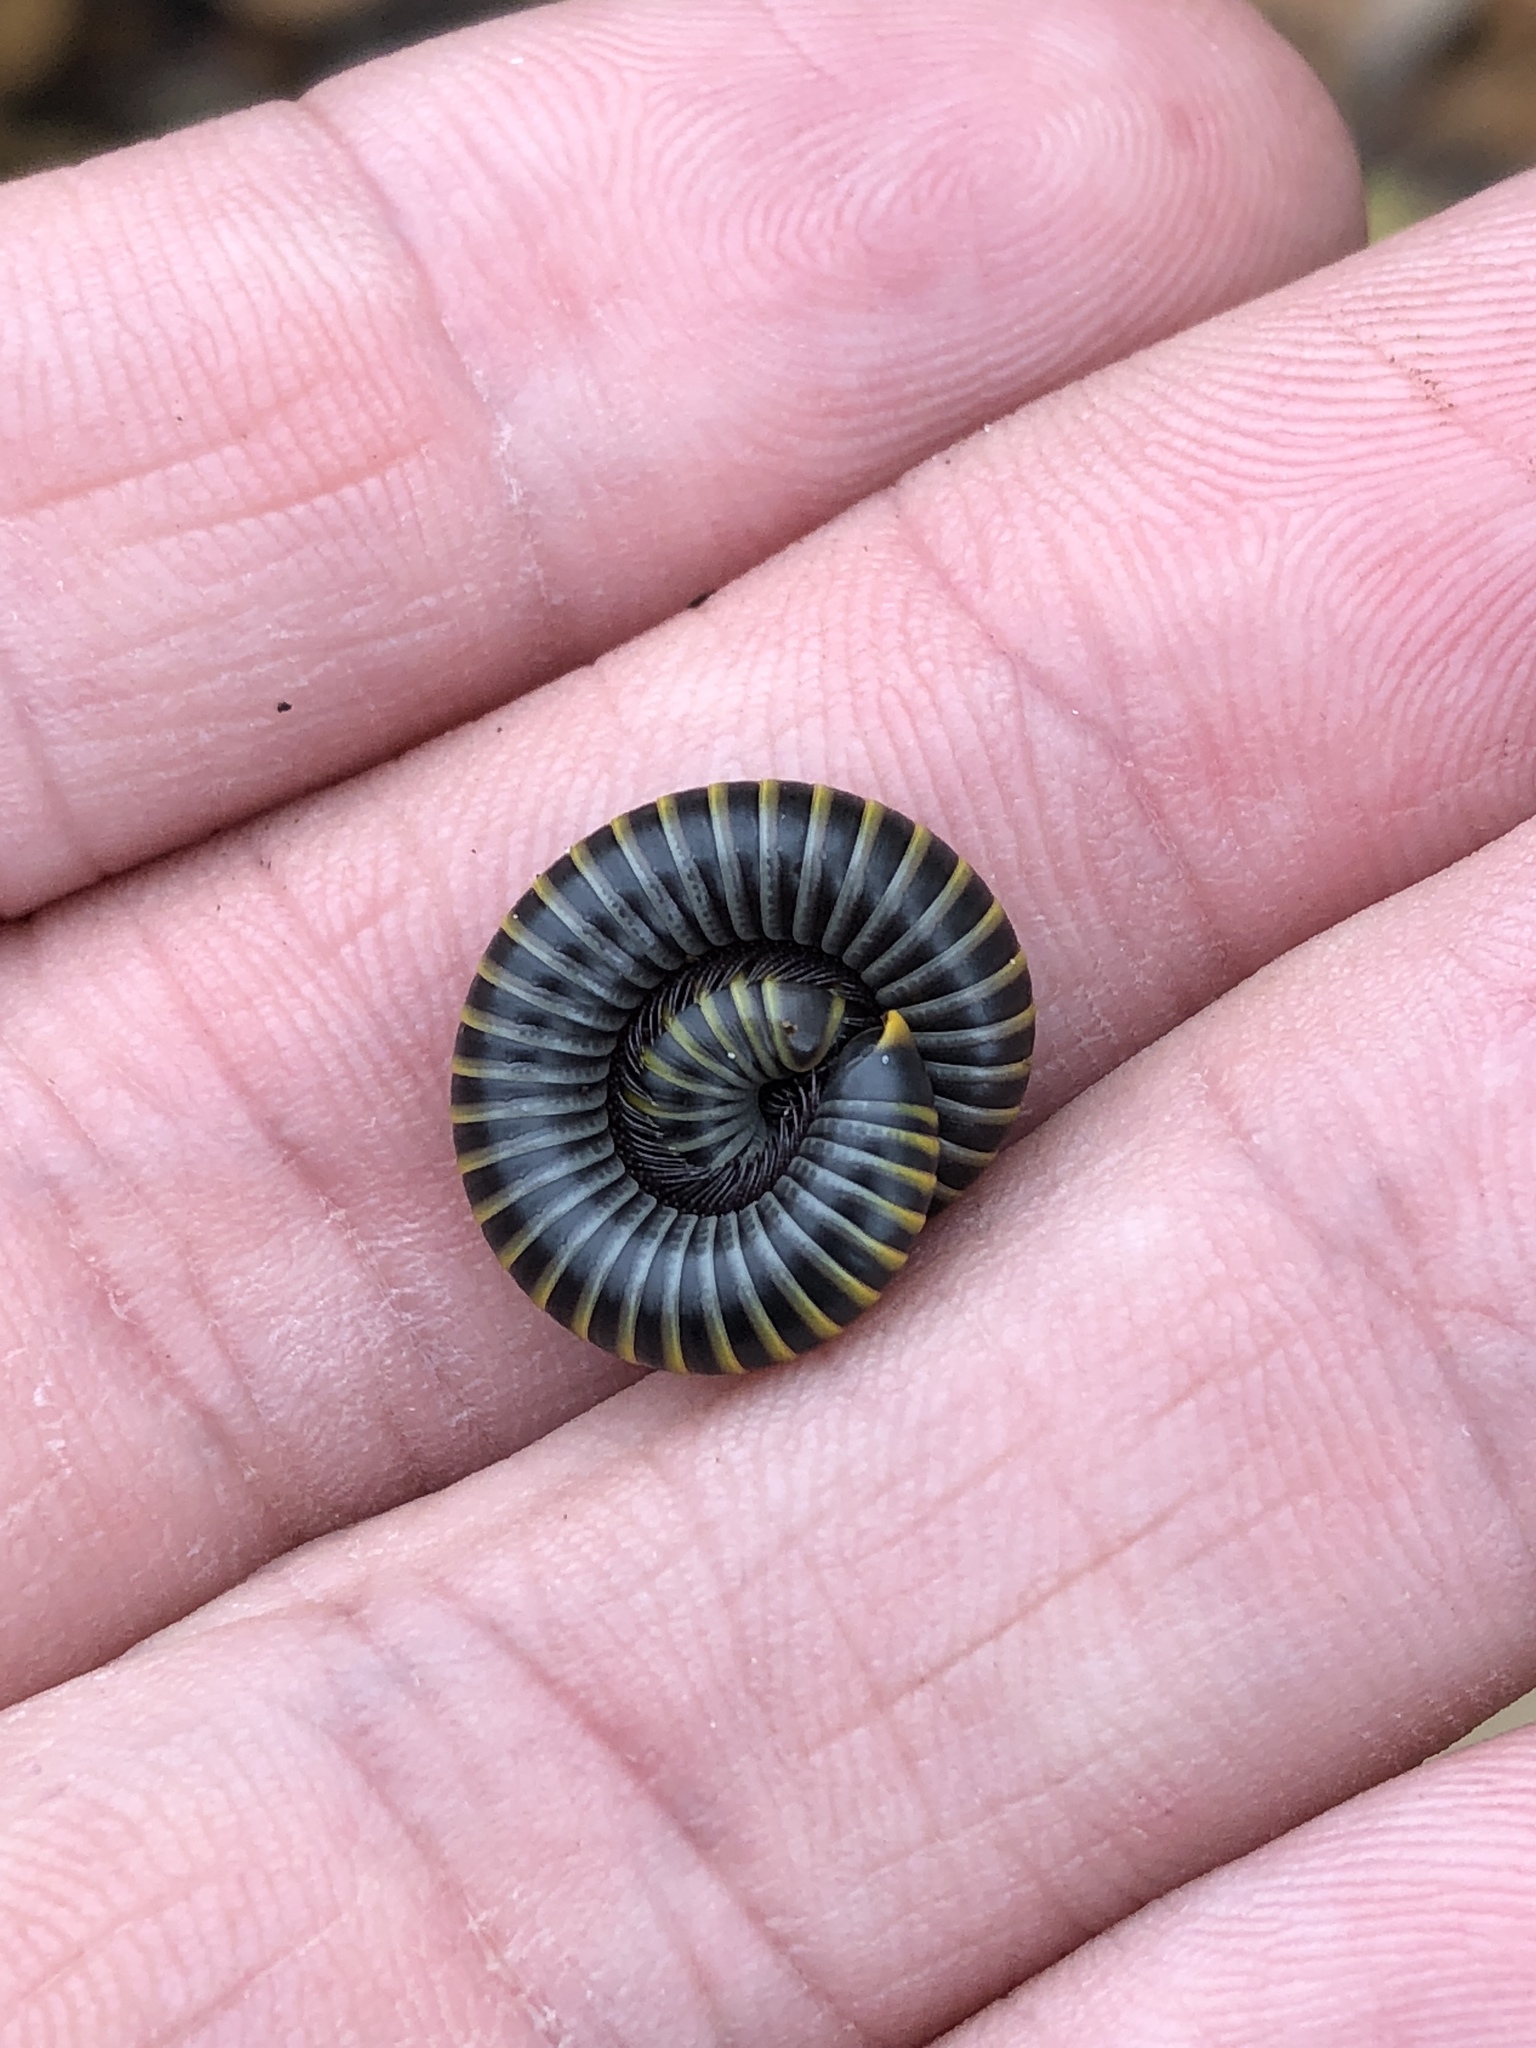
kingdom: Animalia
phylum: Arthropoda
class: Diplopoda
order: Spirobolida
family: Rhinocricidae
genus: Anadenobolus
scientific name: Anadenobolus monilicornis
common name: Caribbean millipede
